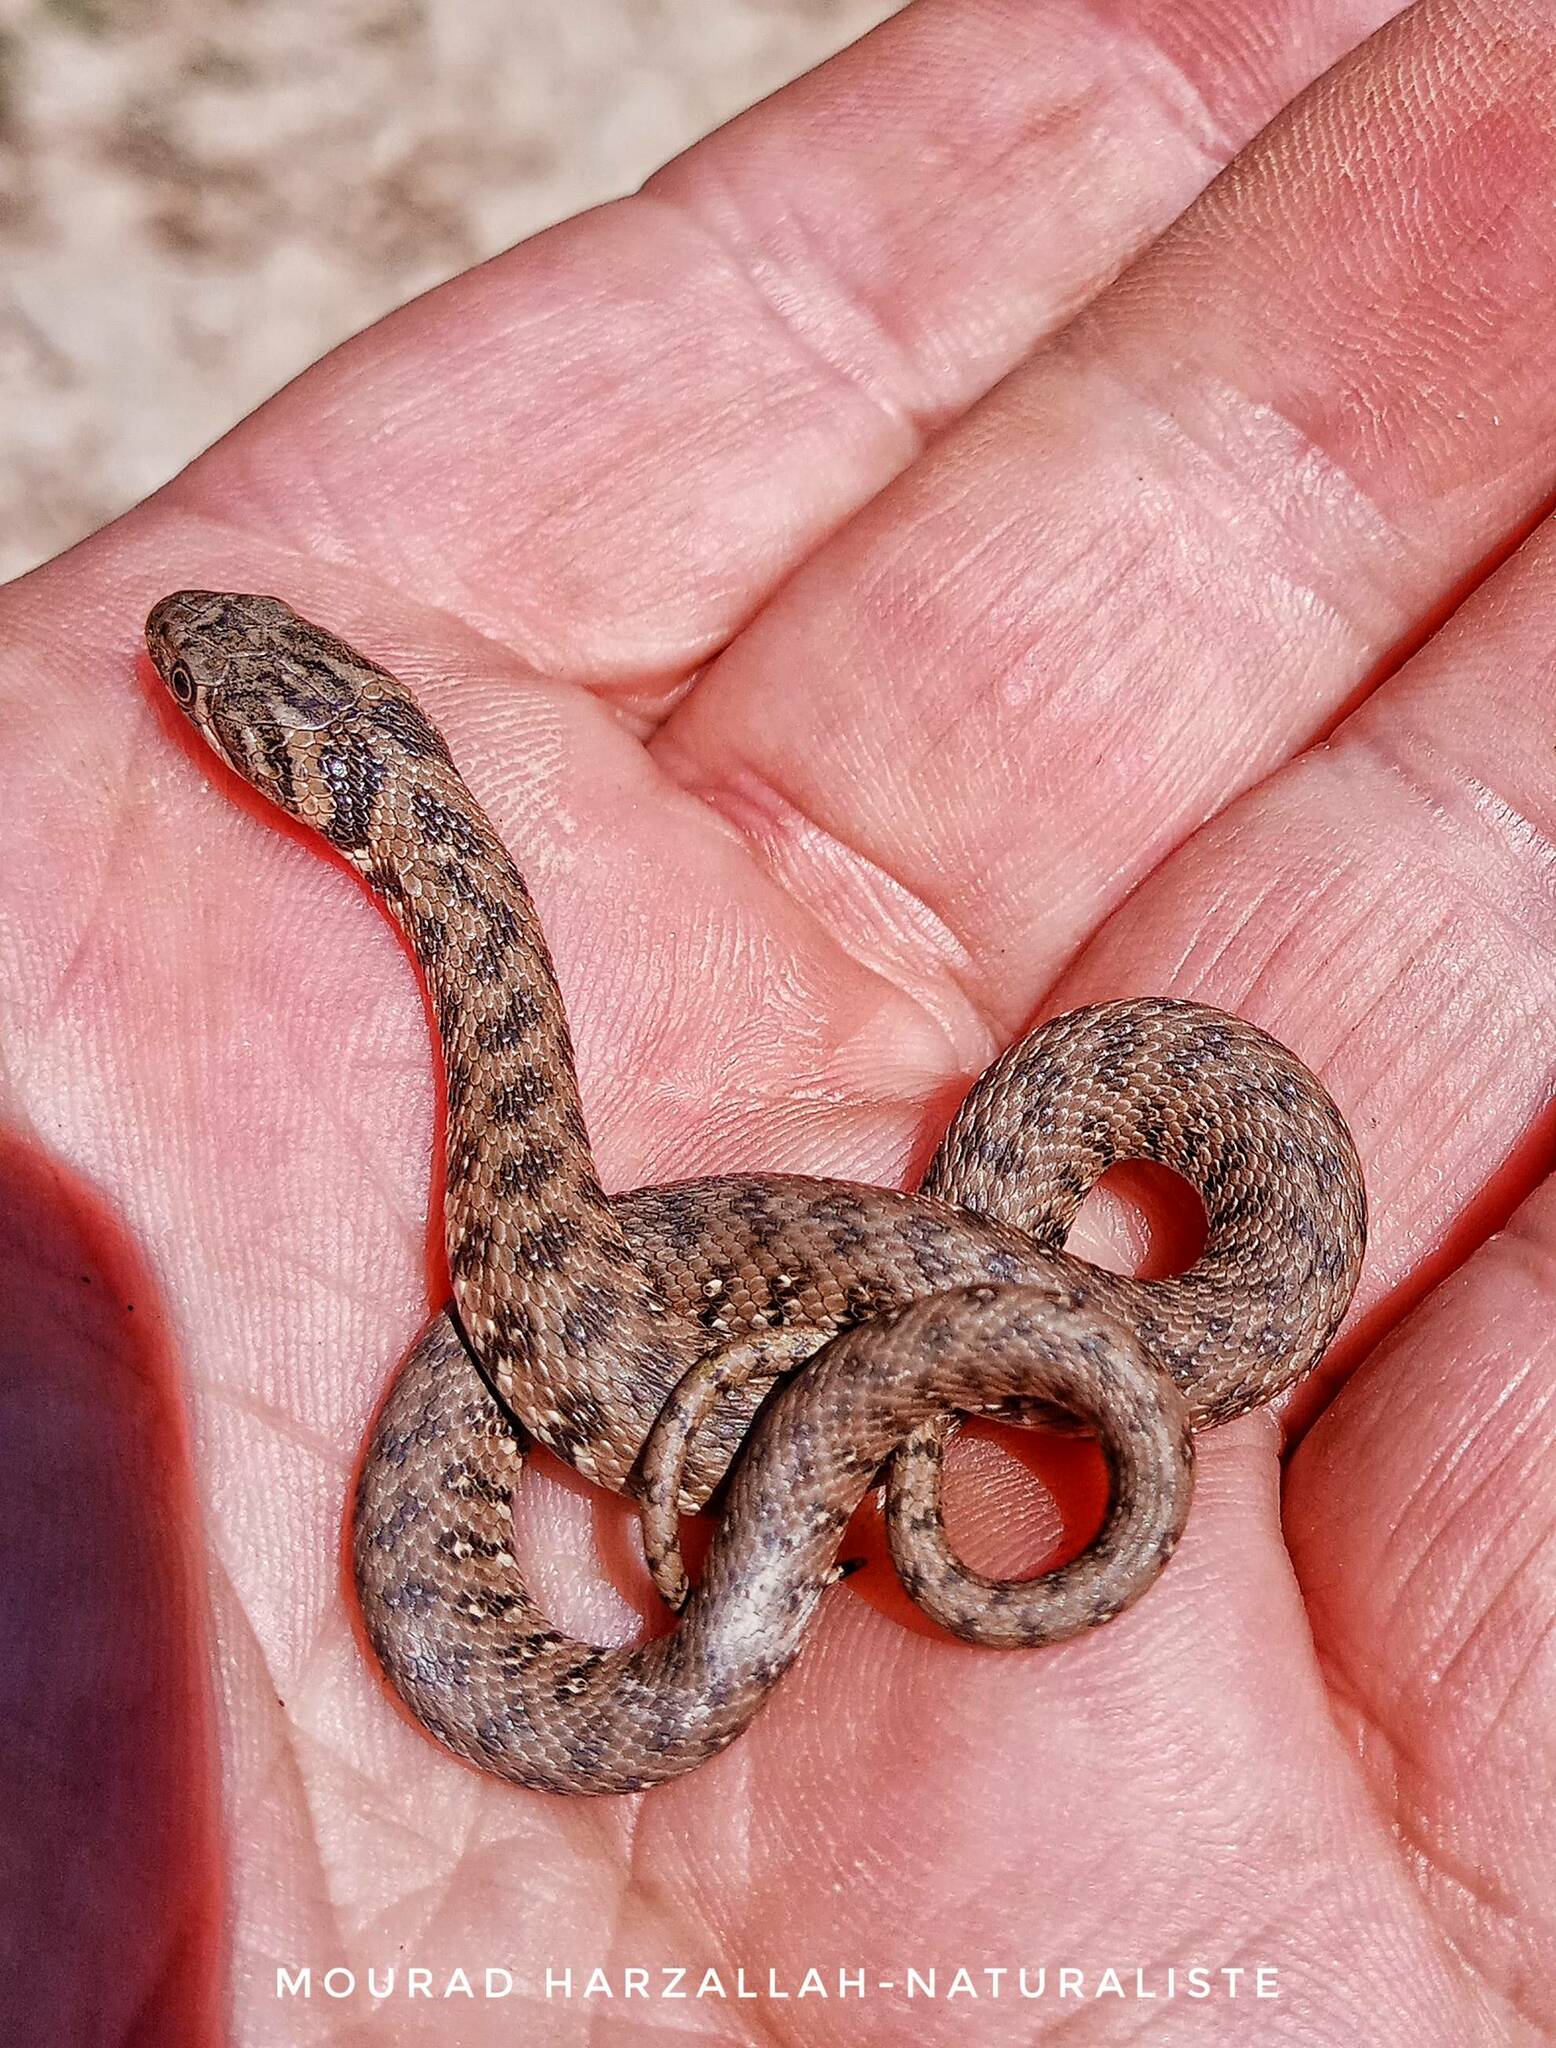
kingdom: Animalia
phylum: Chordata
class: Squamata
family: Colubridae
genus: Natrix
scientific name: Natrix maura
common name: Viperine water snake
